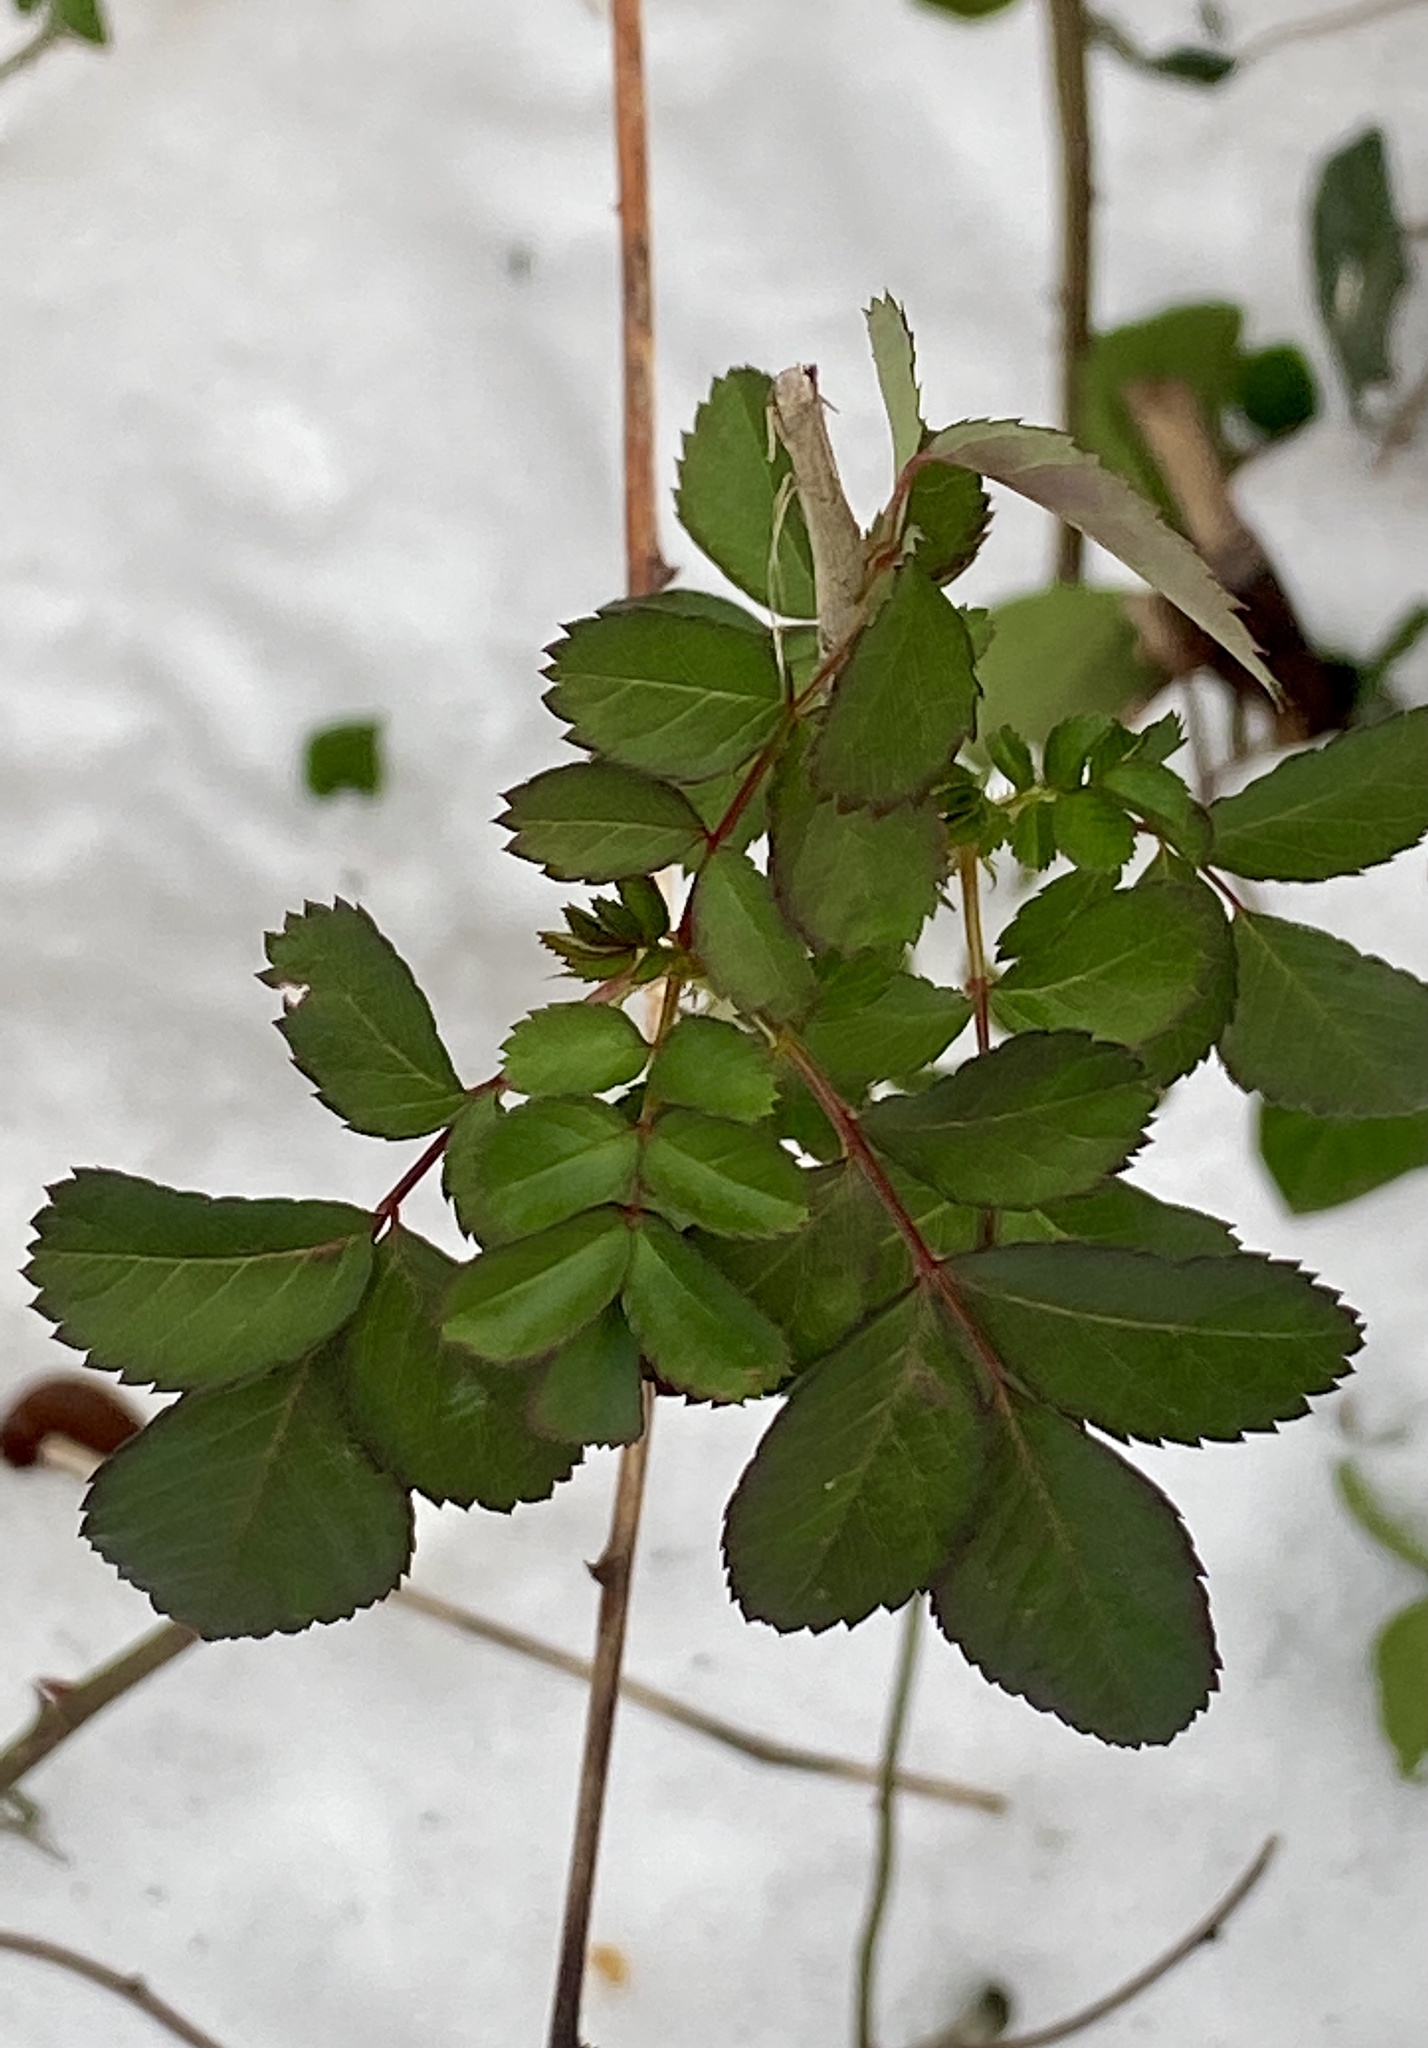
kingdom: Plantae
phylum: Tracheophyta
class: Magnoliopsida
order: Rosales
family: Rosaceae
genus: Rosa
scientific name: Rosa multiflora
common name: Multiflora rose
